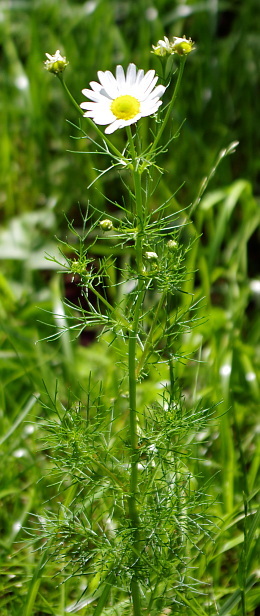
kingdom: Plantae
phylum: Tracheophyta
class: Magnoliopsida
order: Asterales
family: Asteraceae
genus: Tripleurospermum
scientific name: Tripleurospermum inodorum
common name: Scentless mayweed
